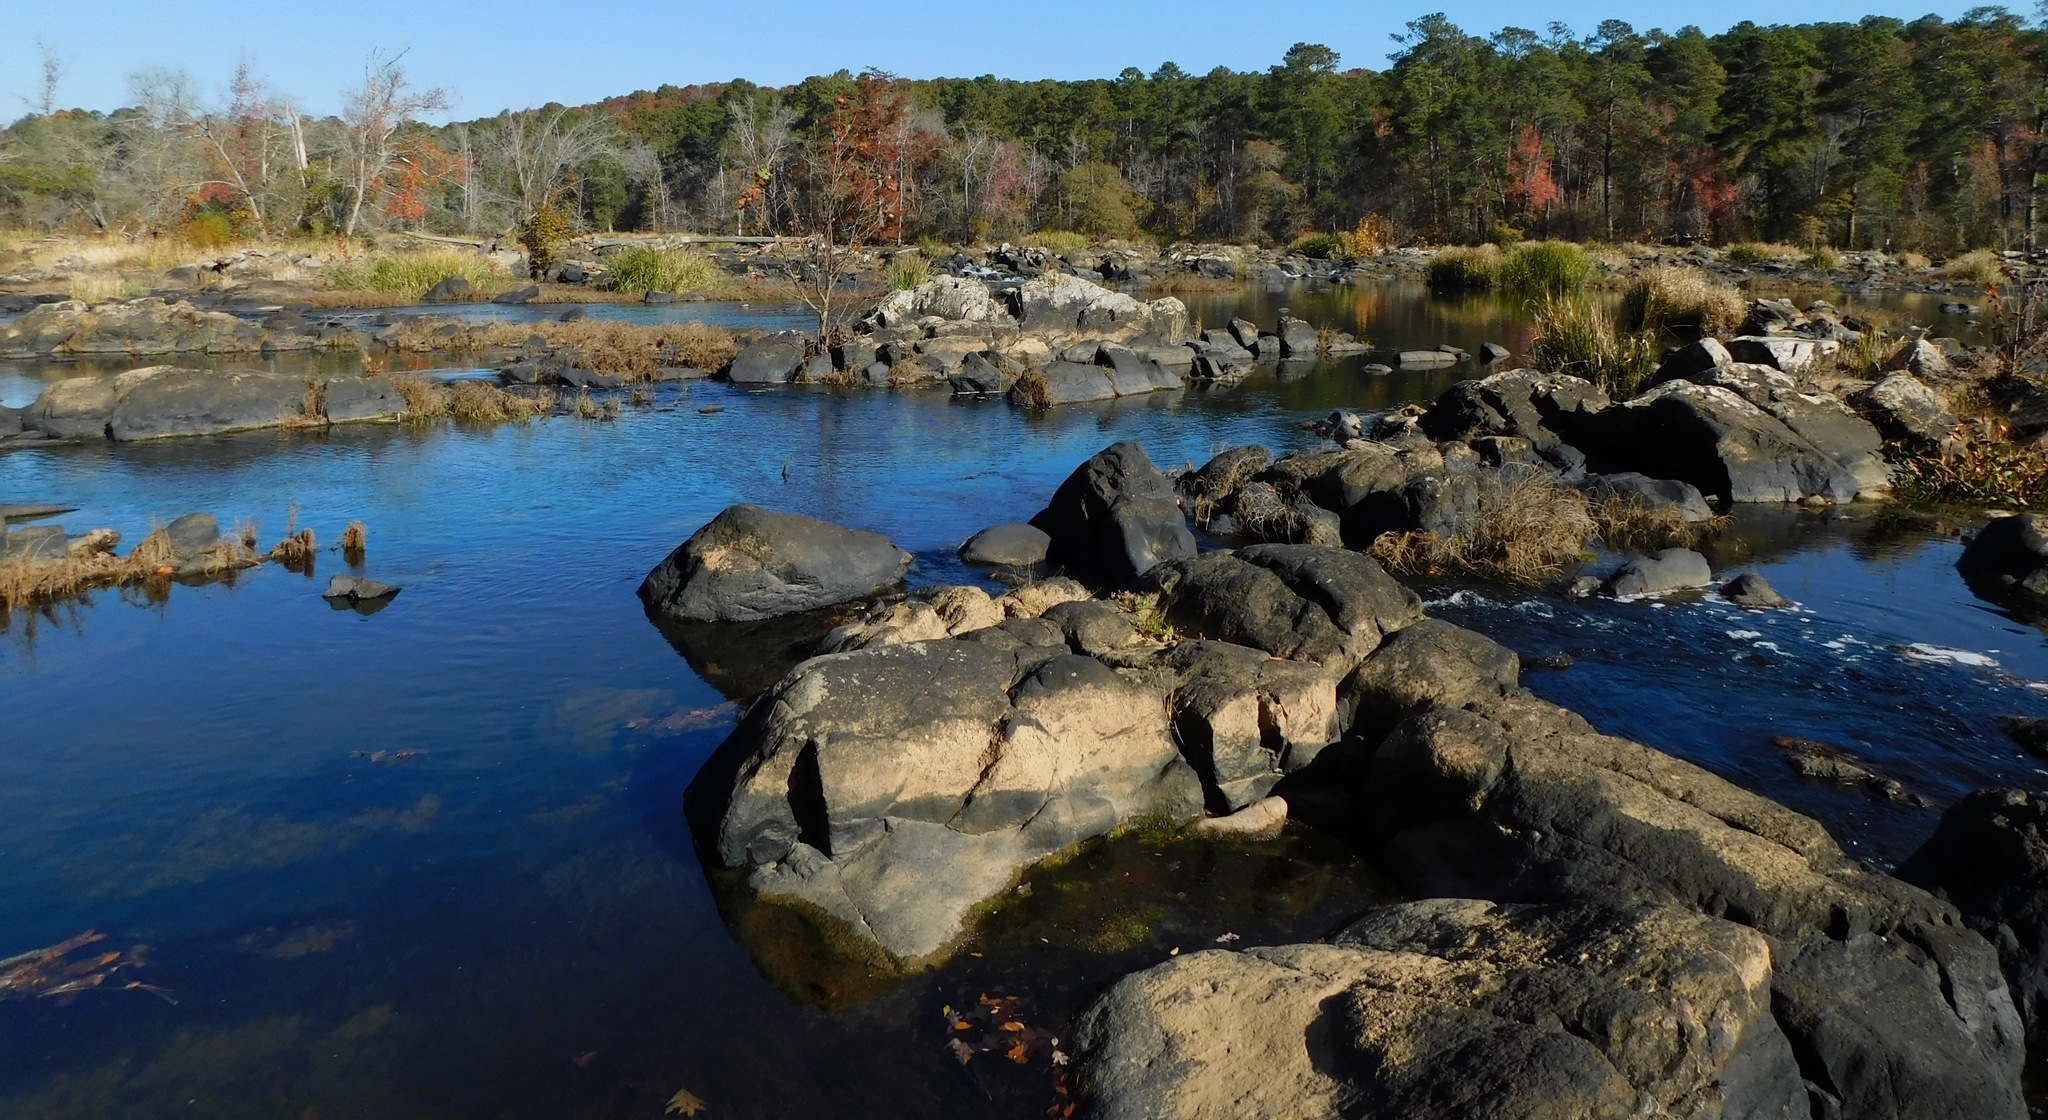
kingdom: Fungi
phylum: Ascomycota
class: Lecanoromycetes
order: Lecanorales
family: Lecanoraceae
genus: Protoparmeliopsis
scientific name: Protoparmeliopsis muralis
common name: Stonewall rim lichen
